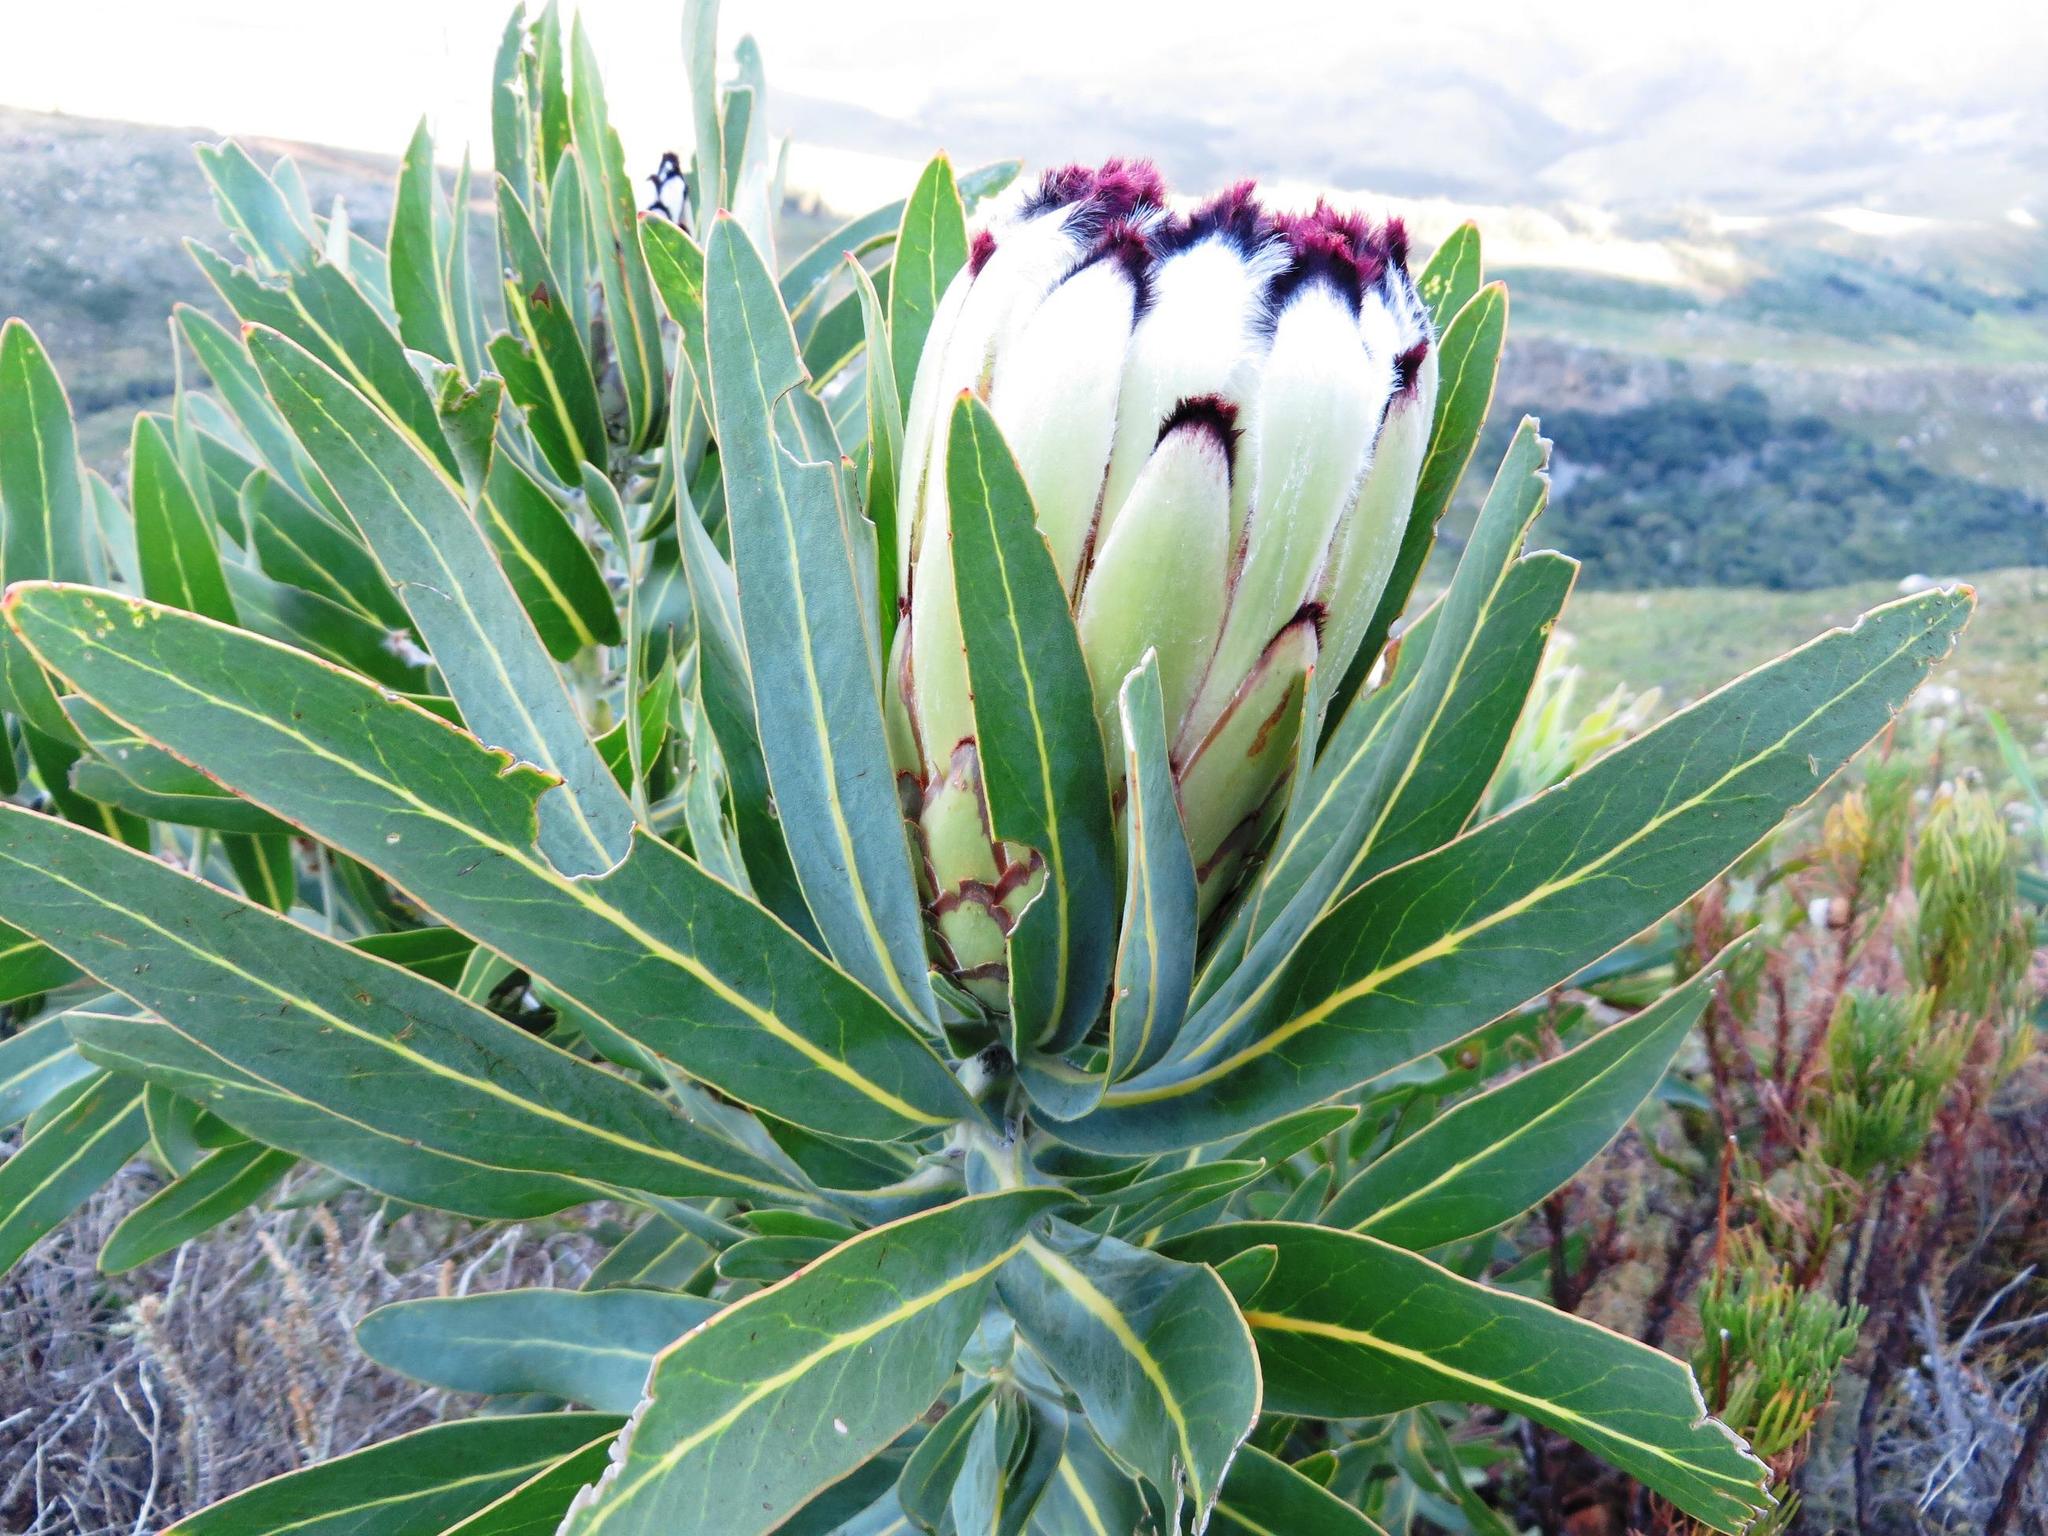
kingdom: Plantae
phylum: Tracheophyta
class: Magnoliopsida
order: Proteales
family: Proteaceae
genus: Protea
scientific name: Protea neriifolia
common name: Blue sugarbush
